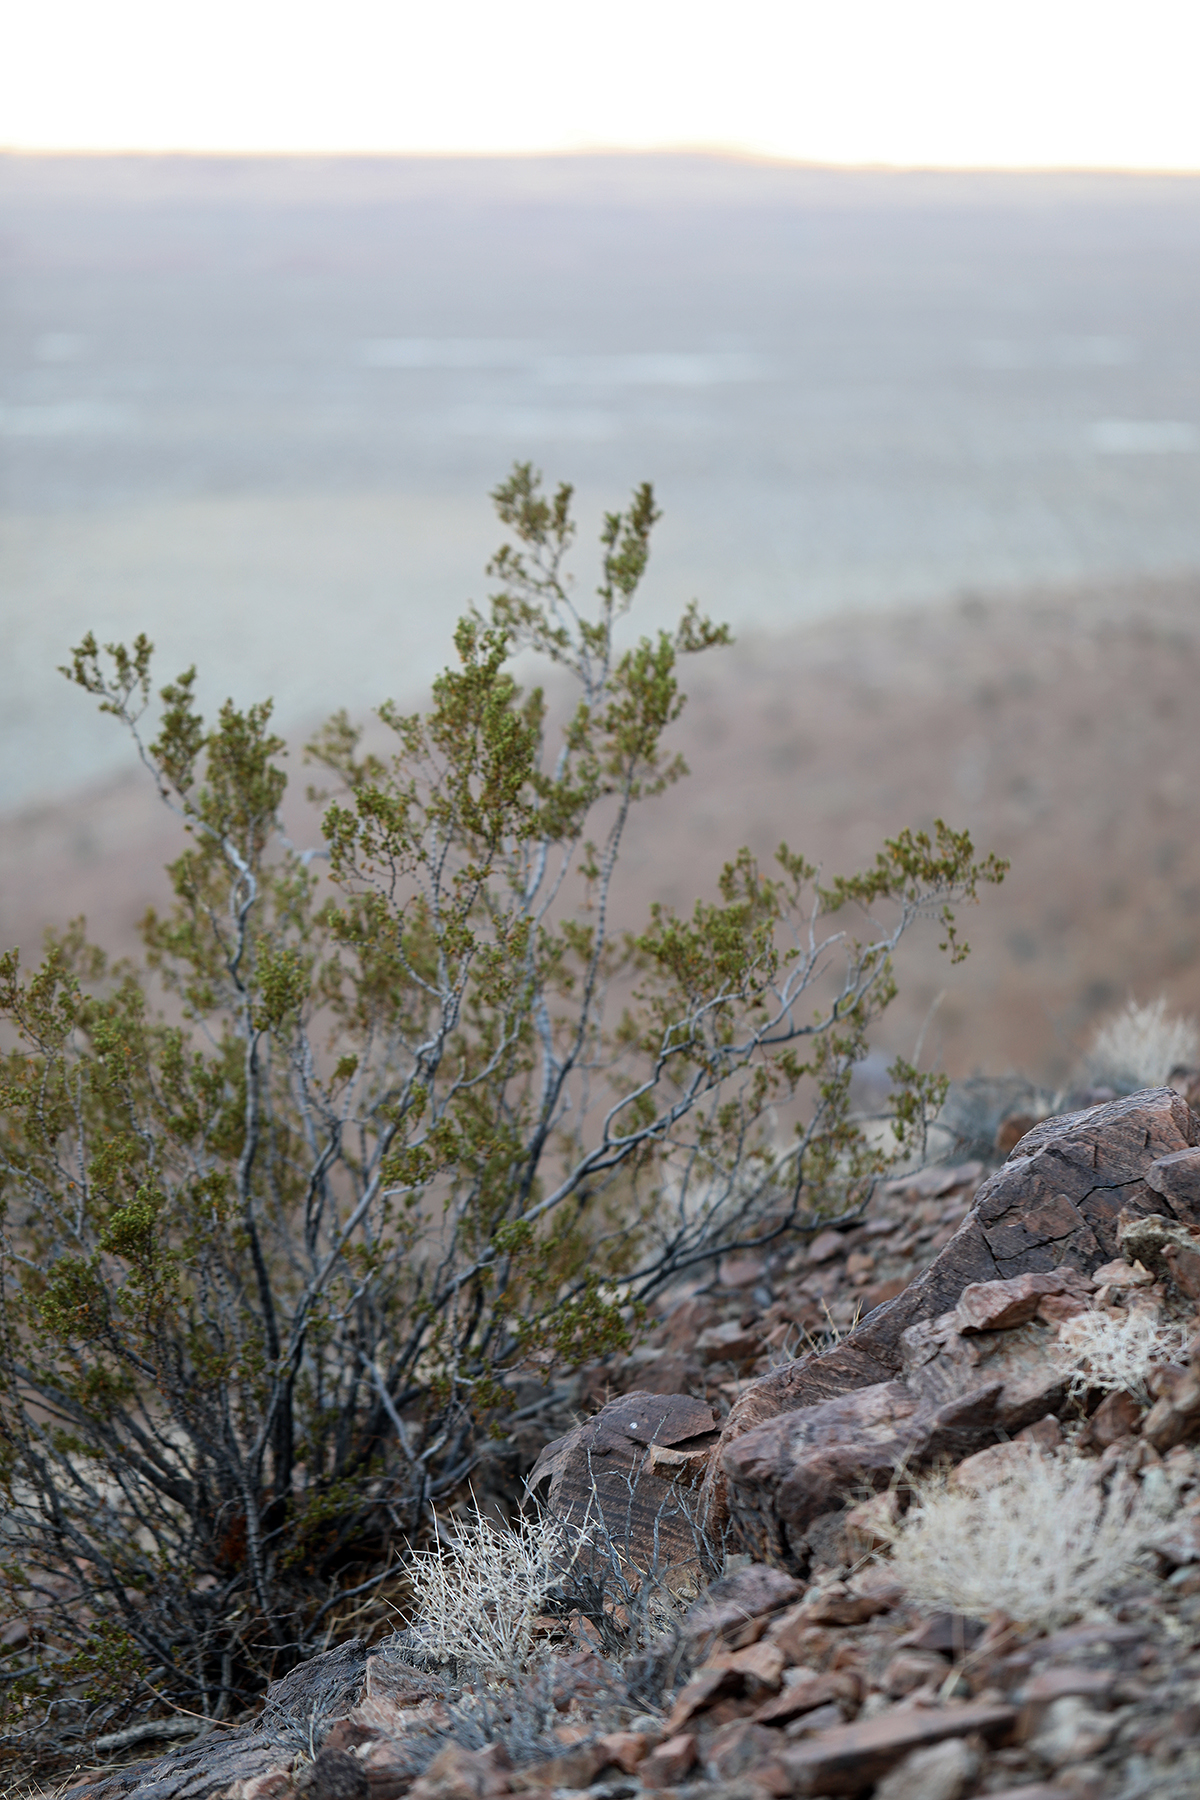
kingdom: Plantae
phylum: Tracheophyta
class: Magnoliopsida
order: Zygophyllales
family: Zygophyllaceae
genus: Larrea
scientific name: Larrea tridentata
